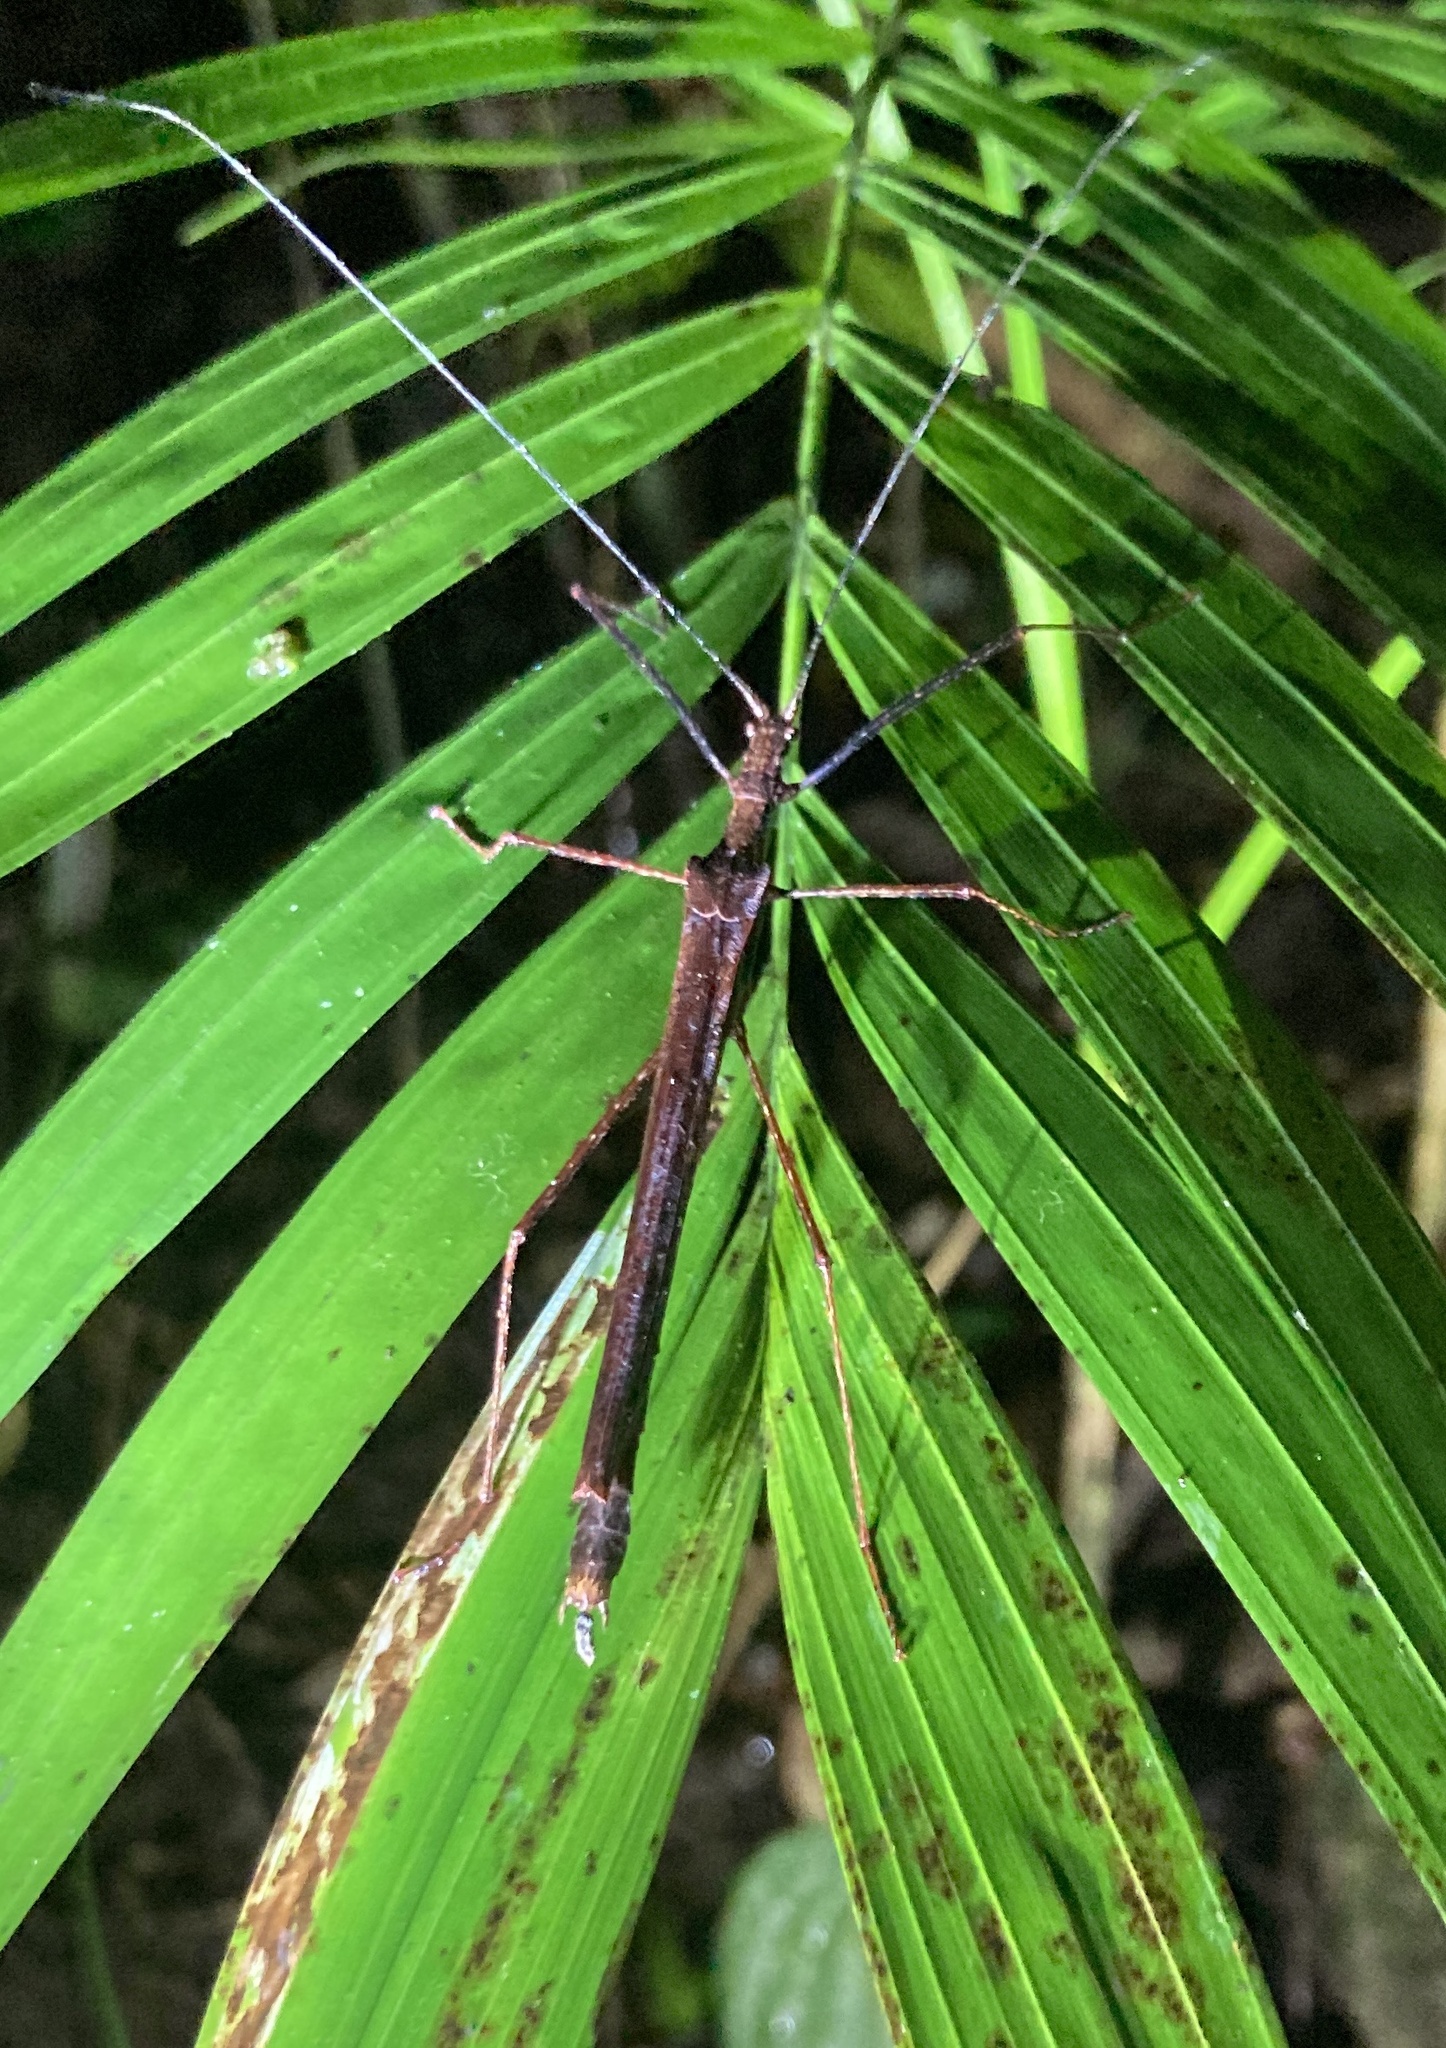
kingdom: Animalia
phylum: Arthropoda
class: Insecta
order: Phasmida
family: Pseudophasmatidae
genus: Pseudophasma
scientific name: Pseudophasma unicolor
